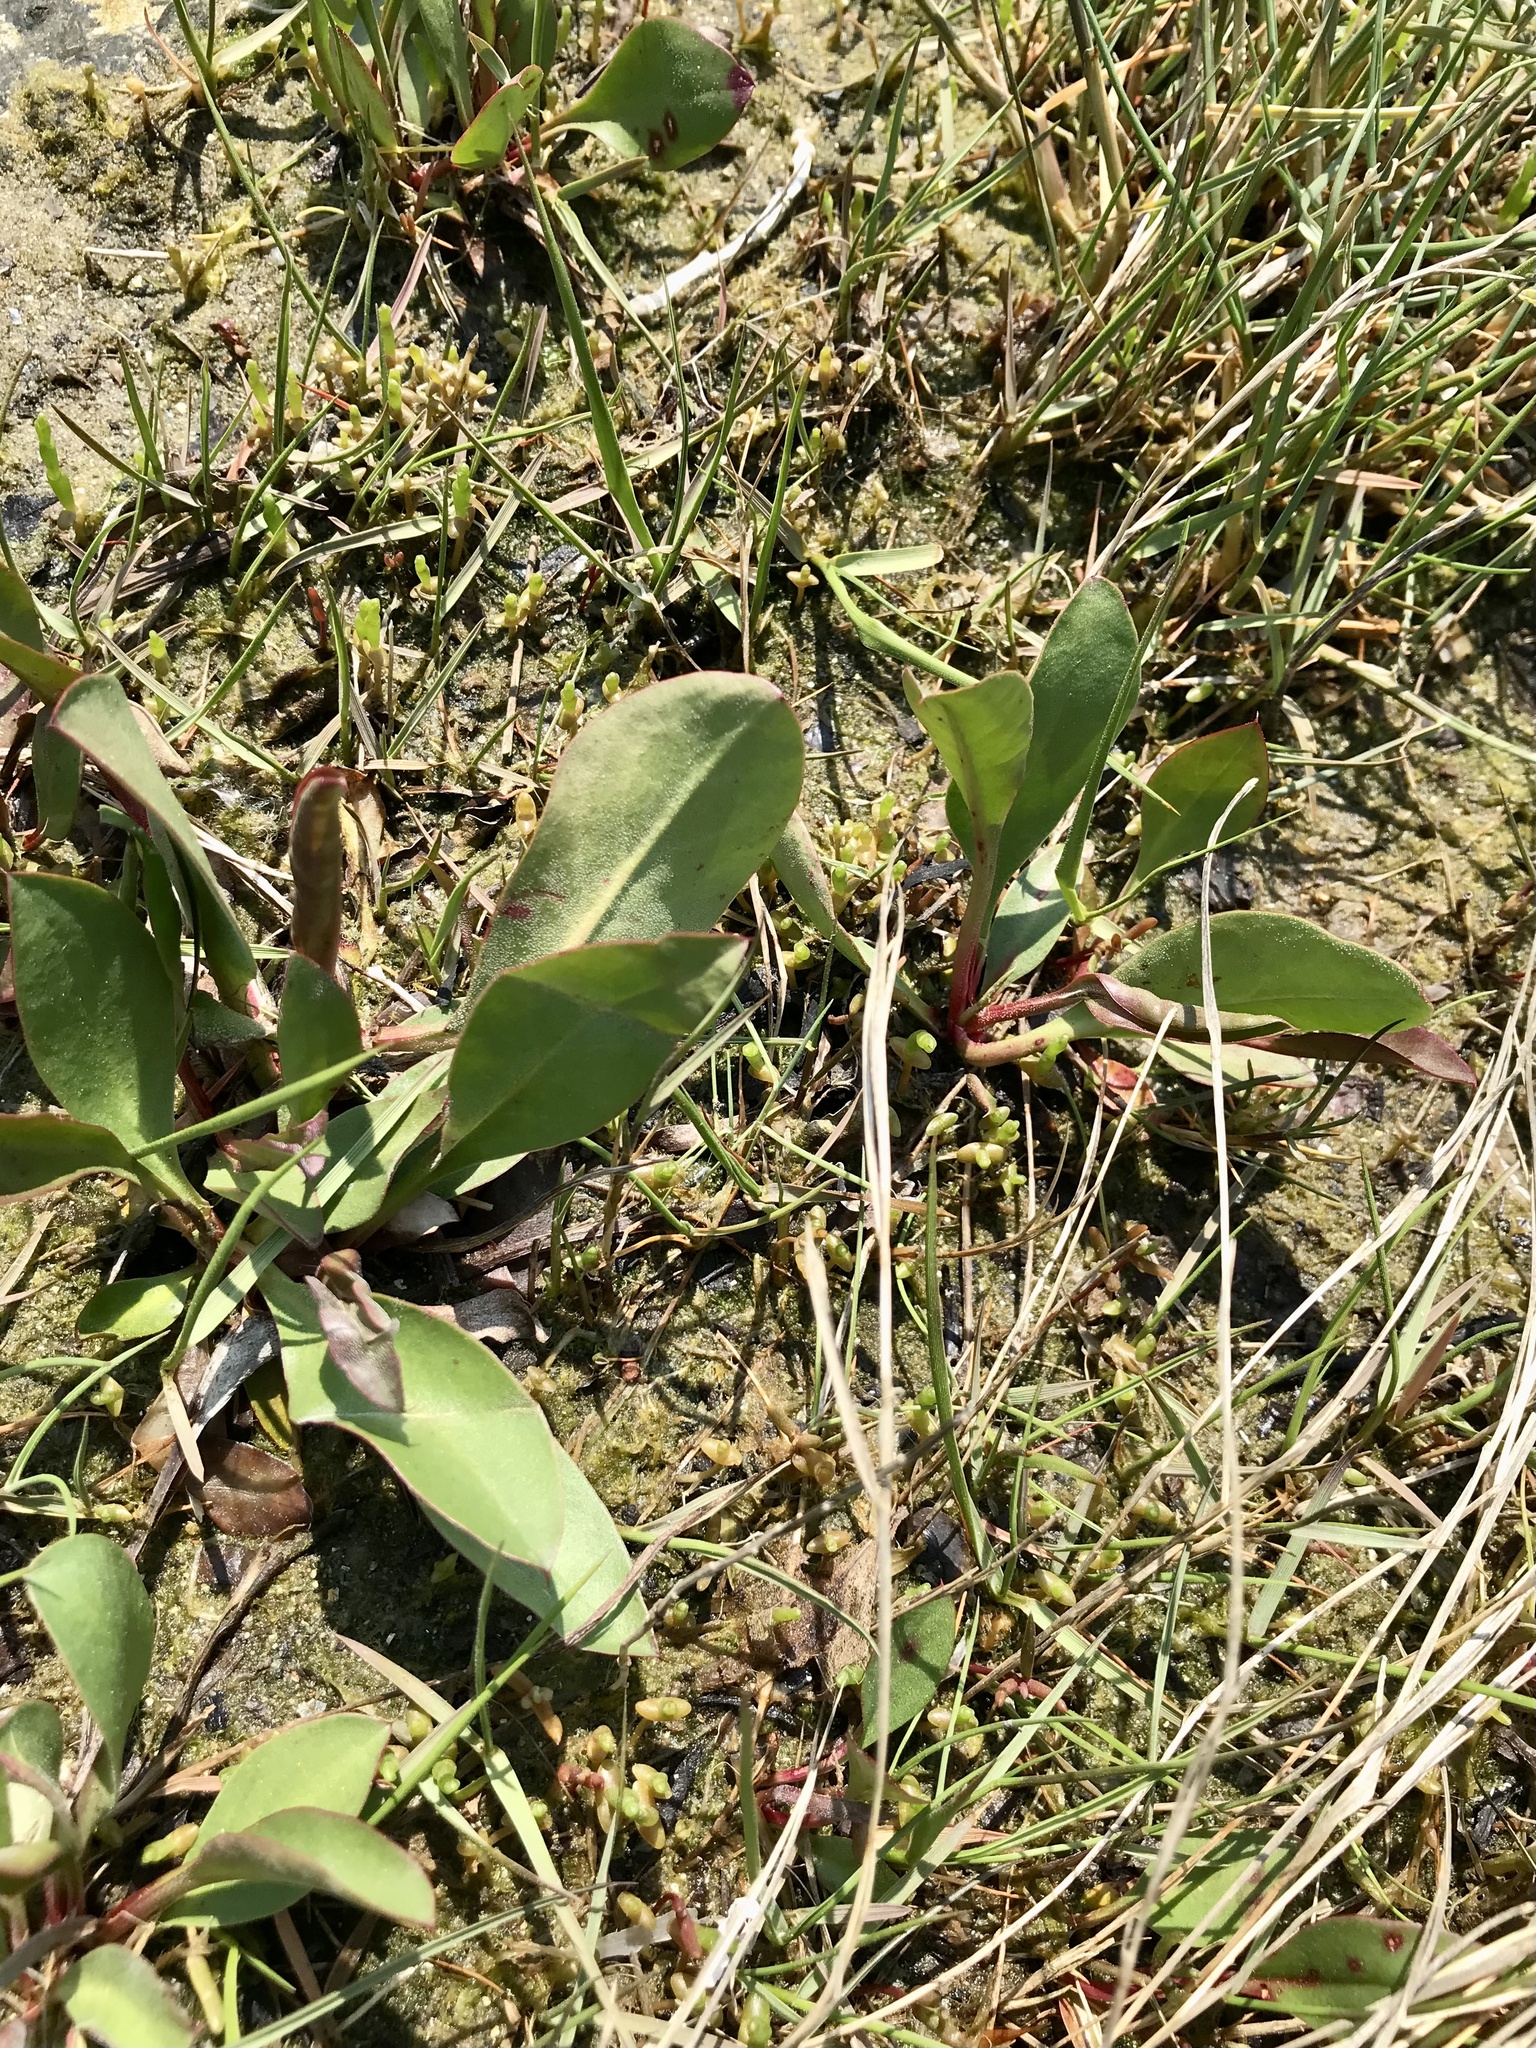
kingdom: Plantae
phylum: Tracheophyta
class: Magnoliopsida
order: Caryophyllales
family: Plumbaginaceae
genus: Limonium
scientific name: Limonium carolinianum
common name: Carolina sea lavender
